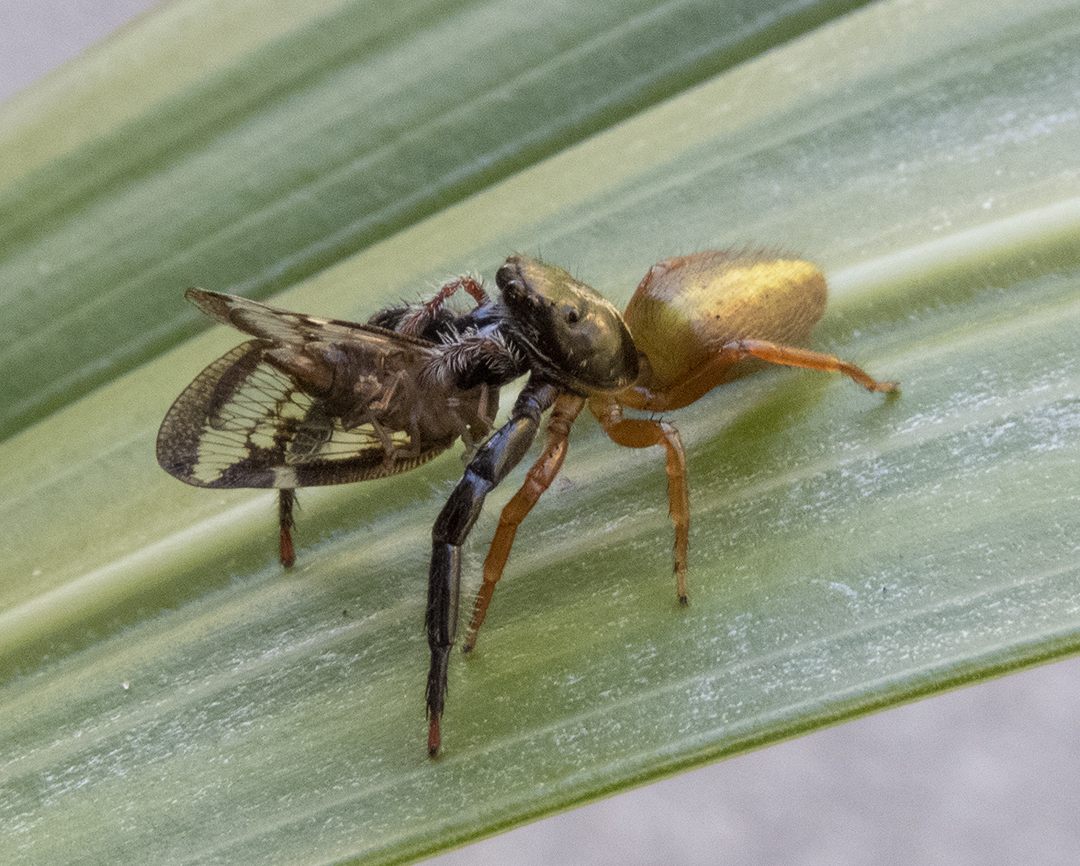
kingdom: Animalia
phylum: Arthropoda
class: Arachnida
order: Araneae
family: Salticidae
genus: Trite
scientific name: Trite planiceps
